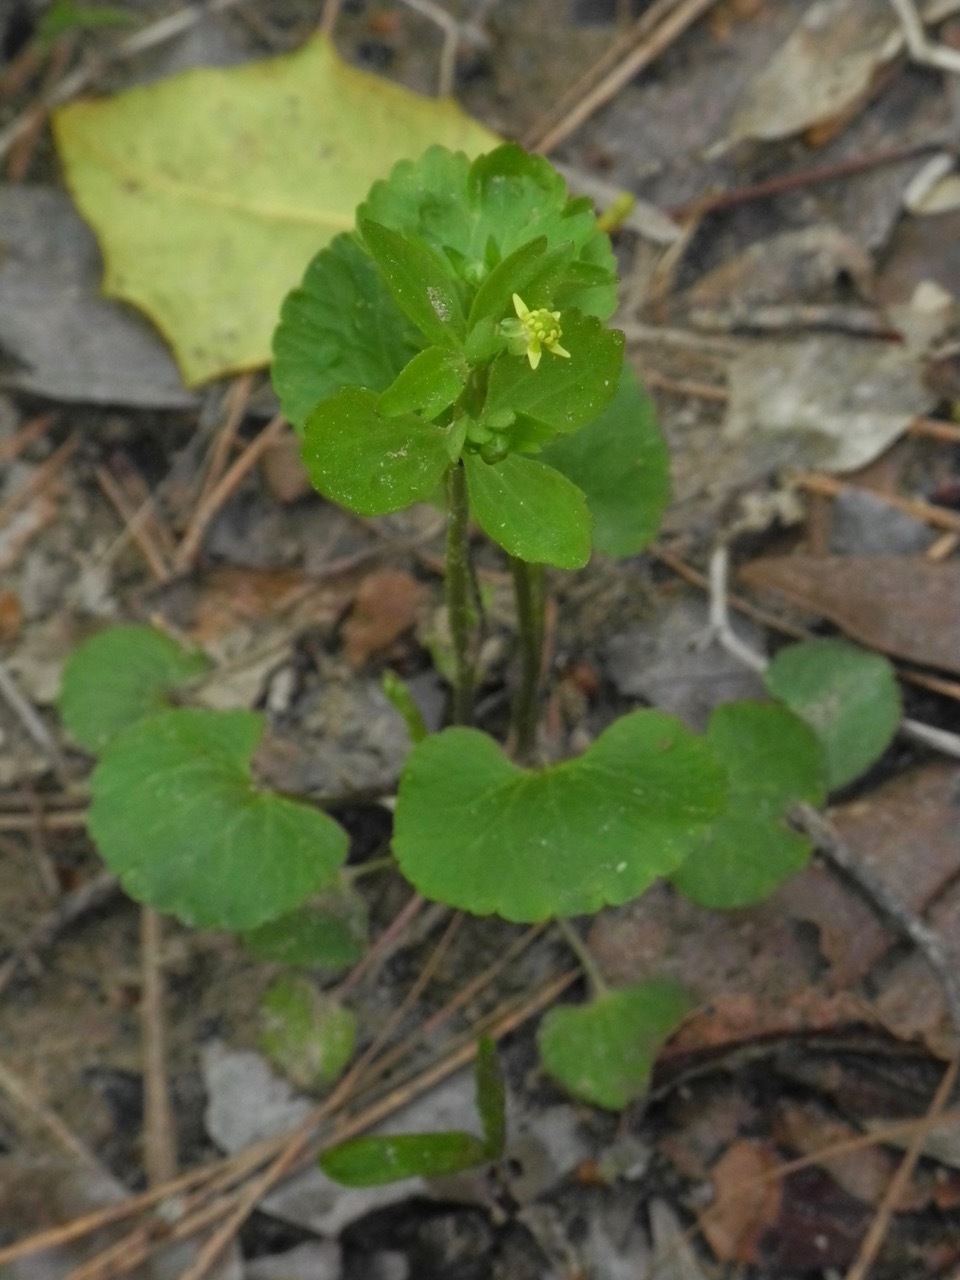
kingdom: Plantae
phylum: Tracheophyta
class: Magnoliopsida
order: Ranunculales
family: Ranunculaceae
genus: Ranunculus
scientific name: Ranunculus abortivus
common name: Early wood buttercup
